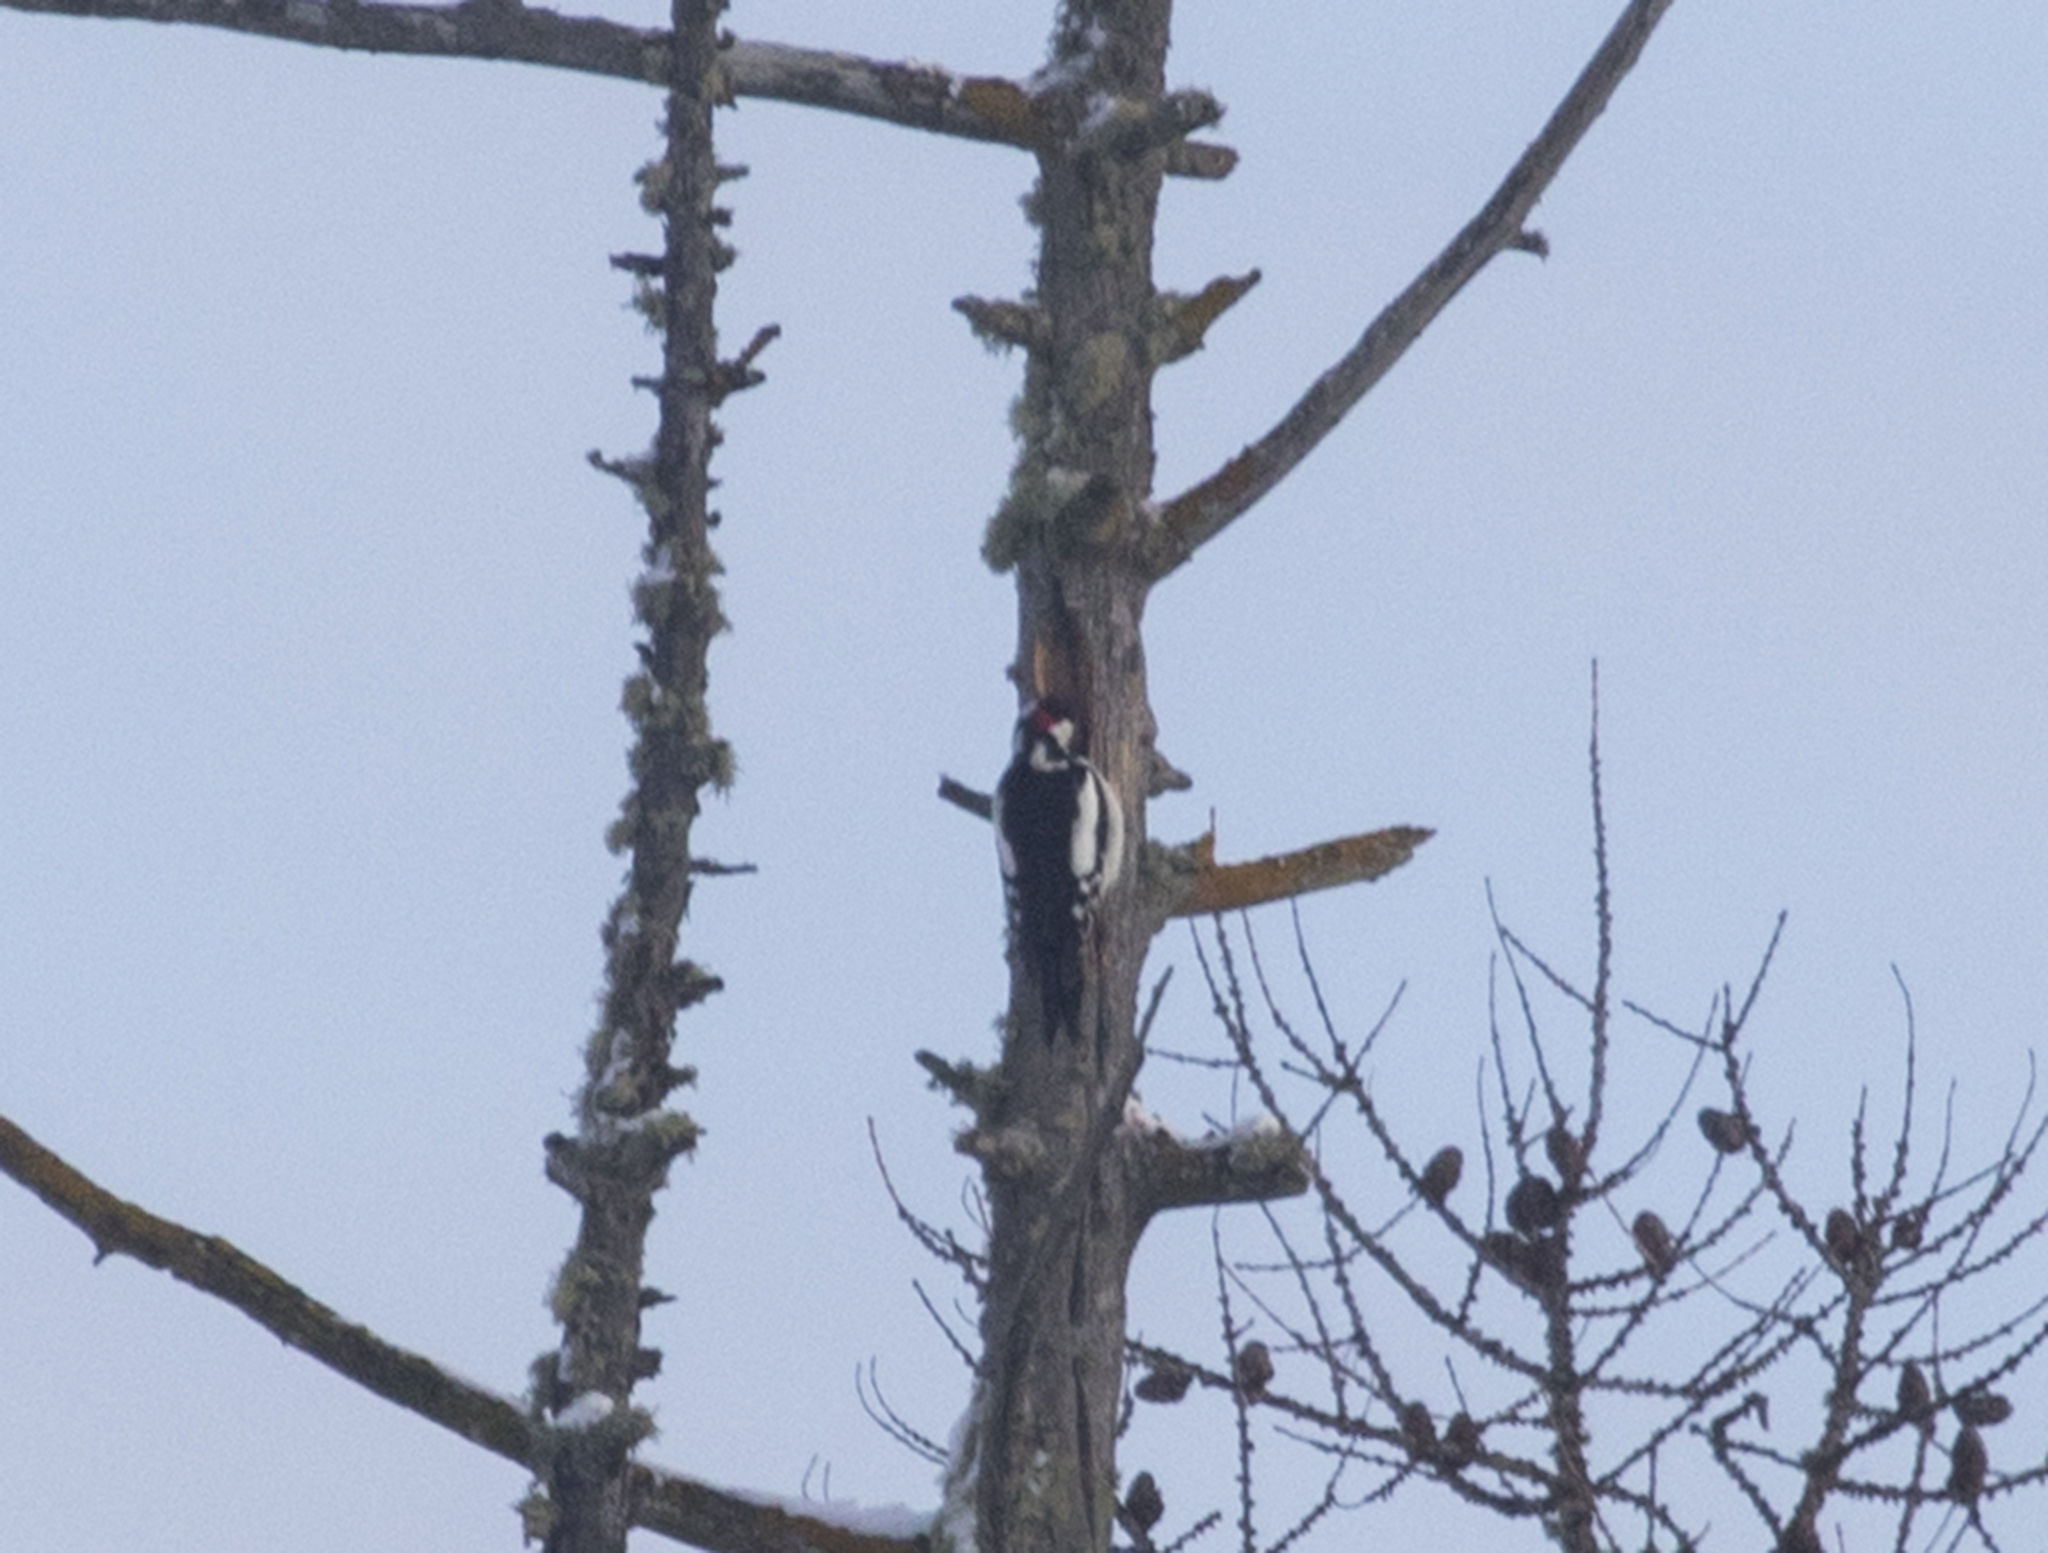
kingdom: Animalia
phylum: Chordata
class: Aves
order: Piciformes
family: Picidae
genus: Dendrocopos
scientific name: Dendrocopos major
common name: Great spotted woodpecker
